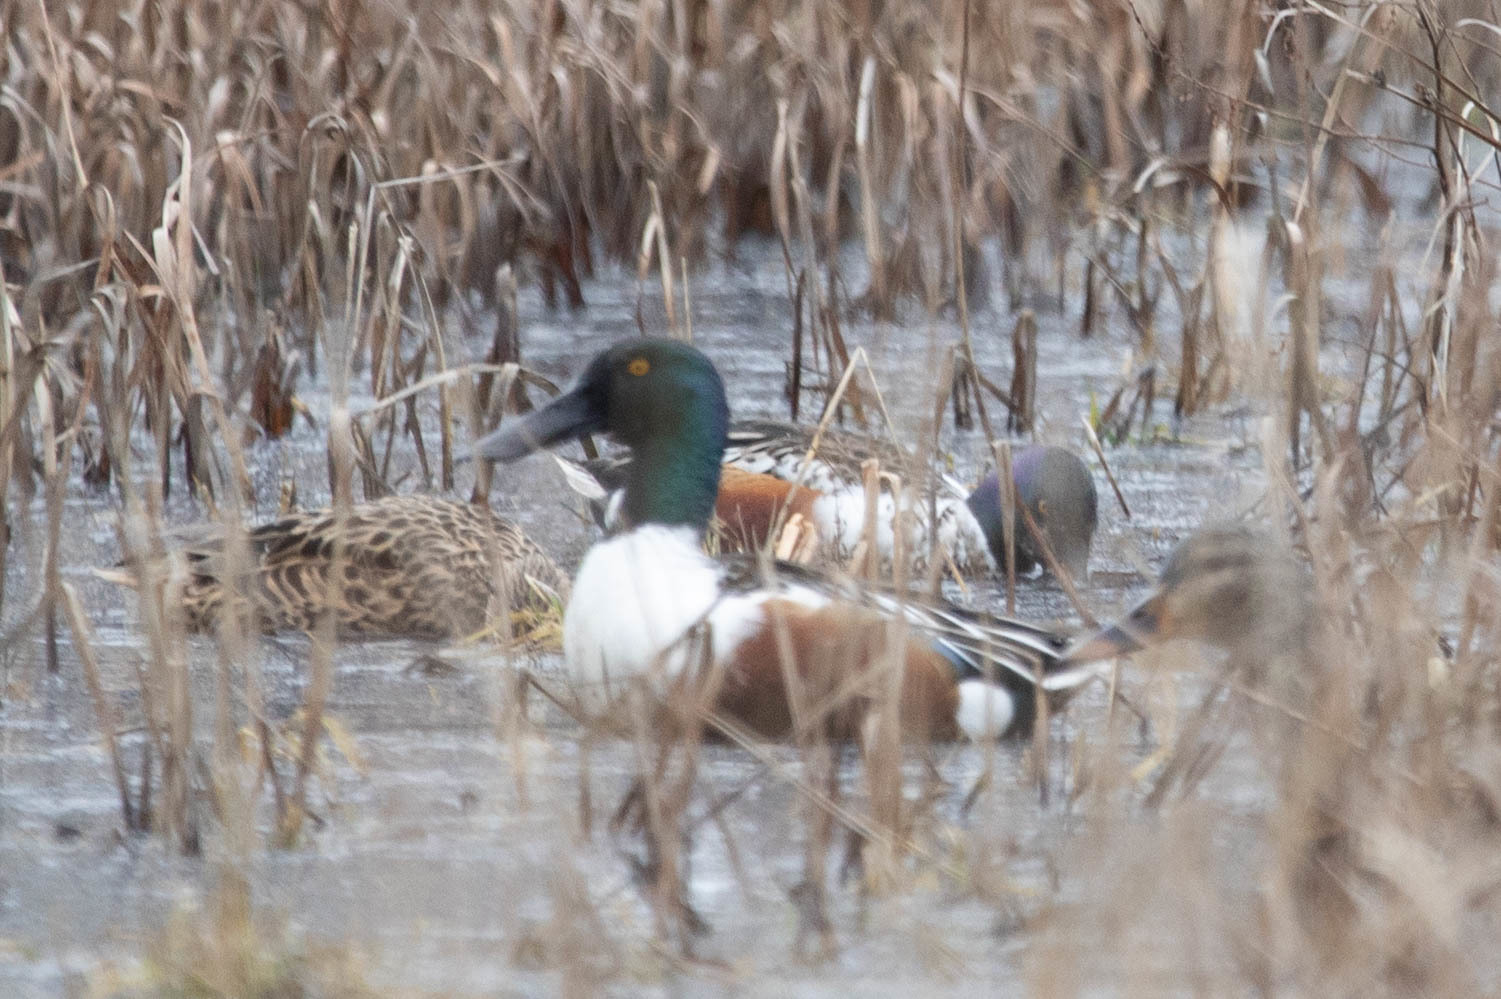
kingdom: Animalia
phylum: Chordata
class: Aves
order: Anseriformes
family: Anatidae
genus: Spatula
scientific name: Spatula clypeata
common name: Northern shoveler
